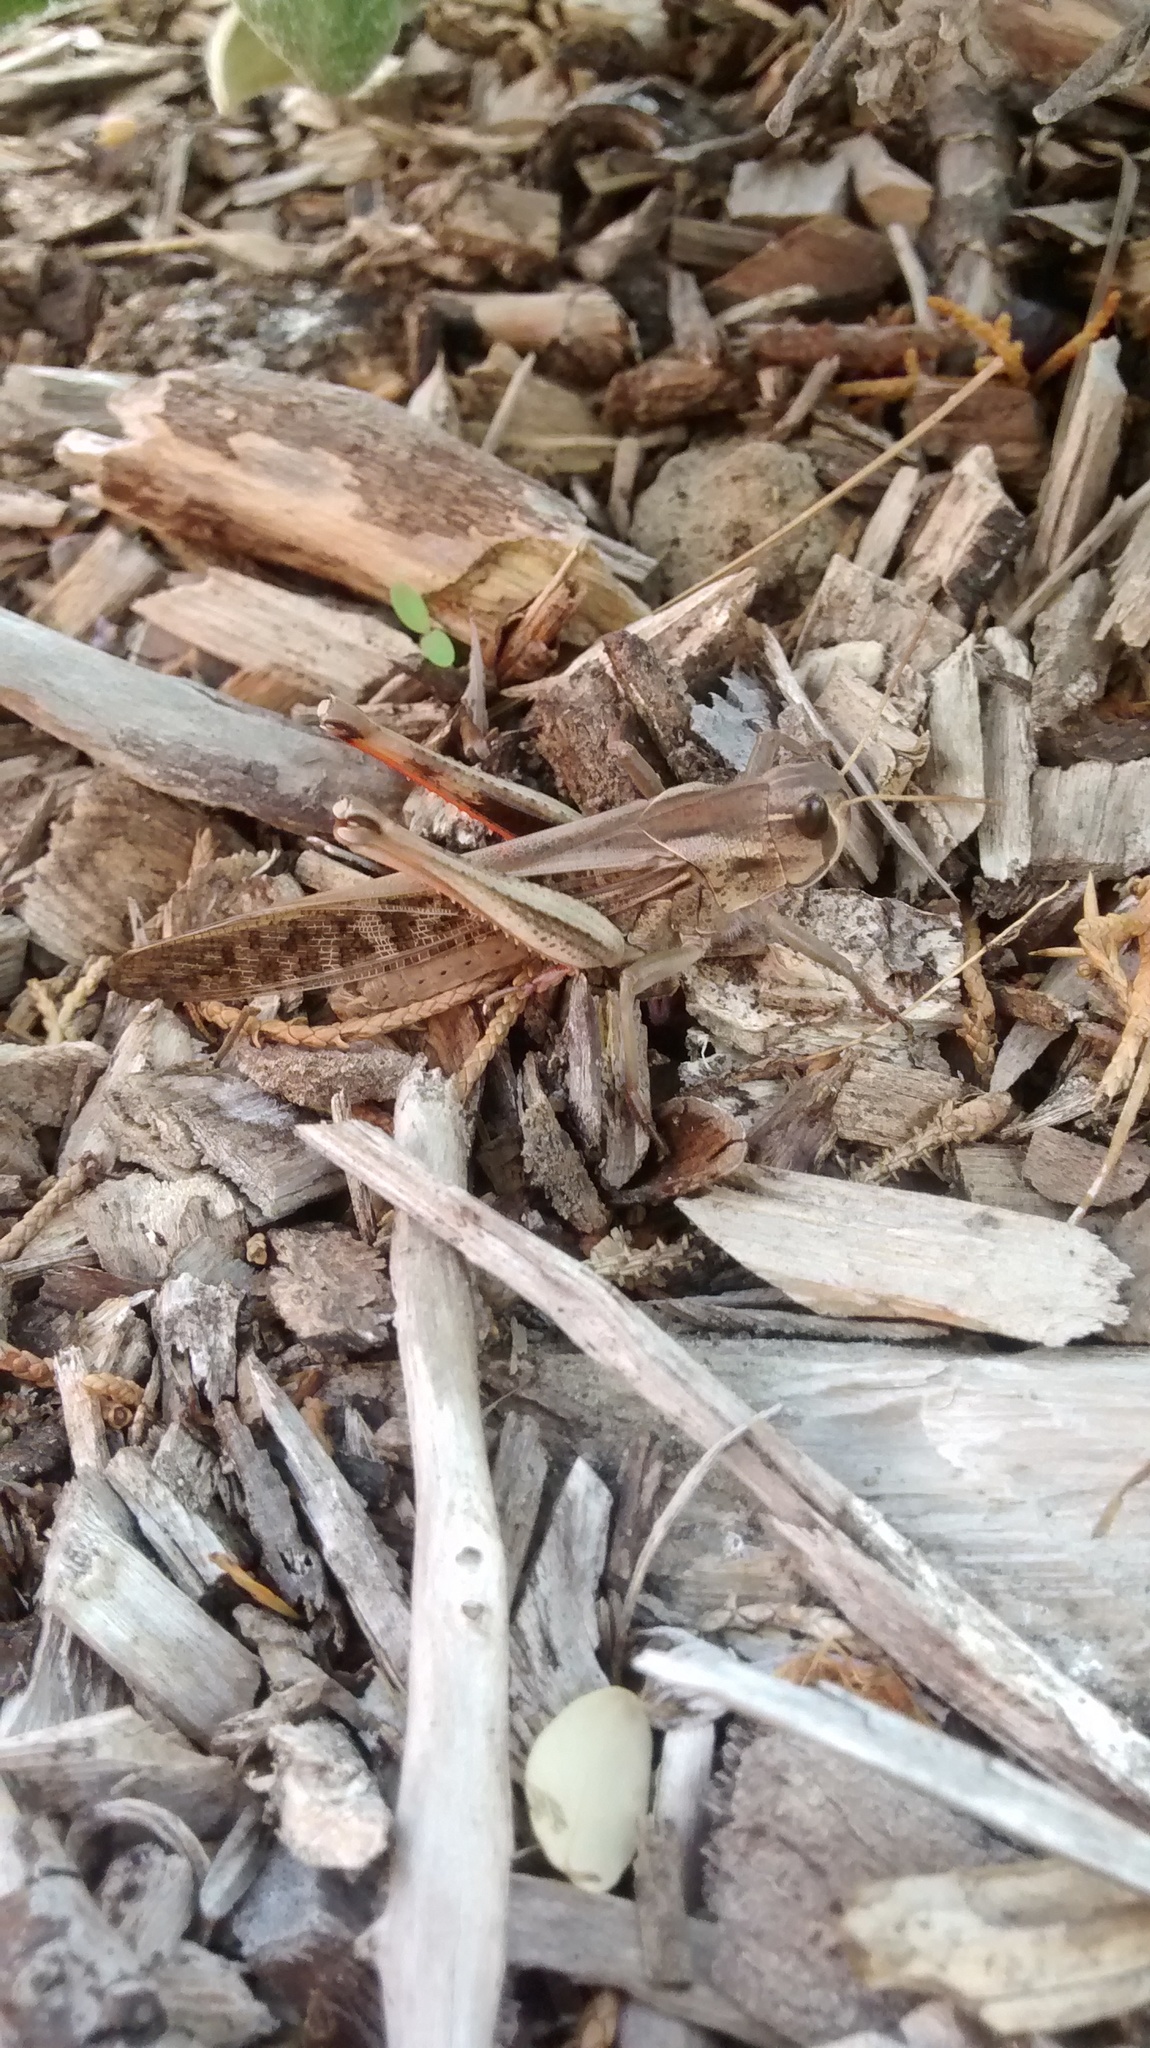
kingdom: Animalia
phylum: Arthropoda
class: Insecta
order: Orthoptera
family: Acrididae
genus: Locusta
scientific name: Locusta migratoria
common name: Migratory locust
